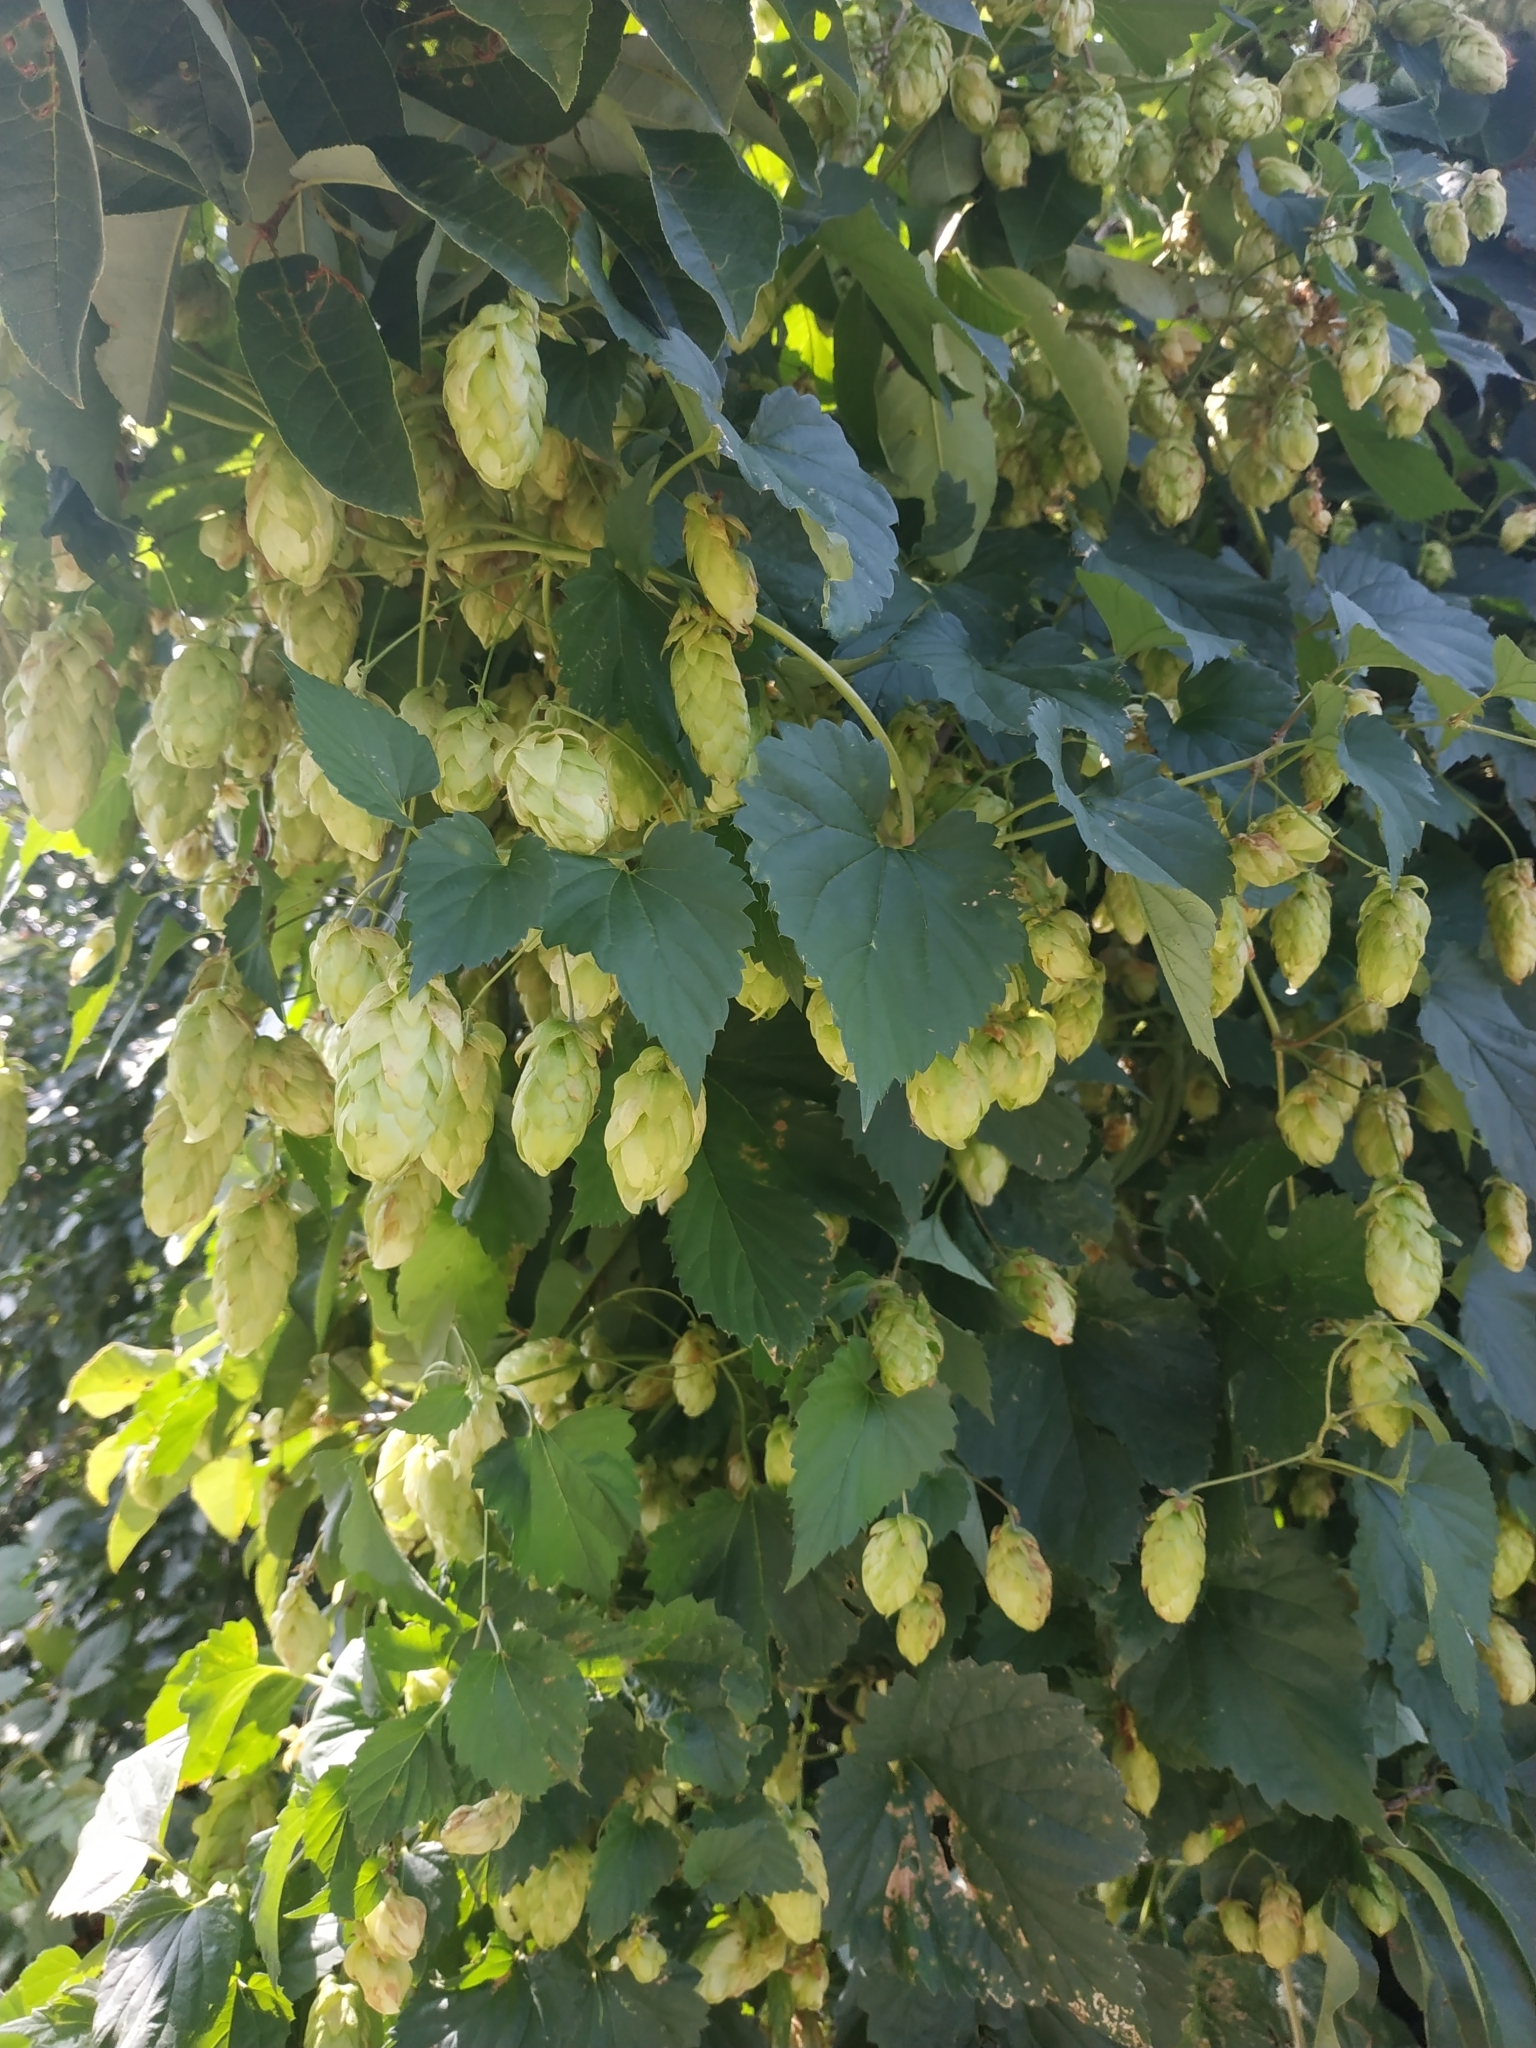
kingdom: Plantae
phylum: Tracheophyta
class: Magnoliopsida
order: Rosales
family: Cannabaceae
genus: Humulus
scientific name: Humulus lupulus
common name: Hop
